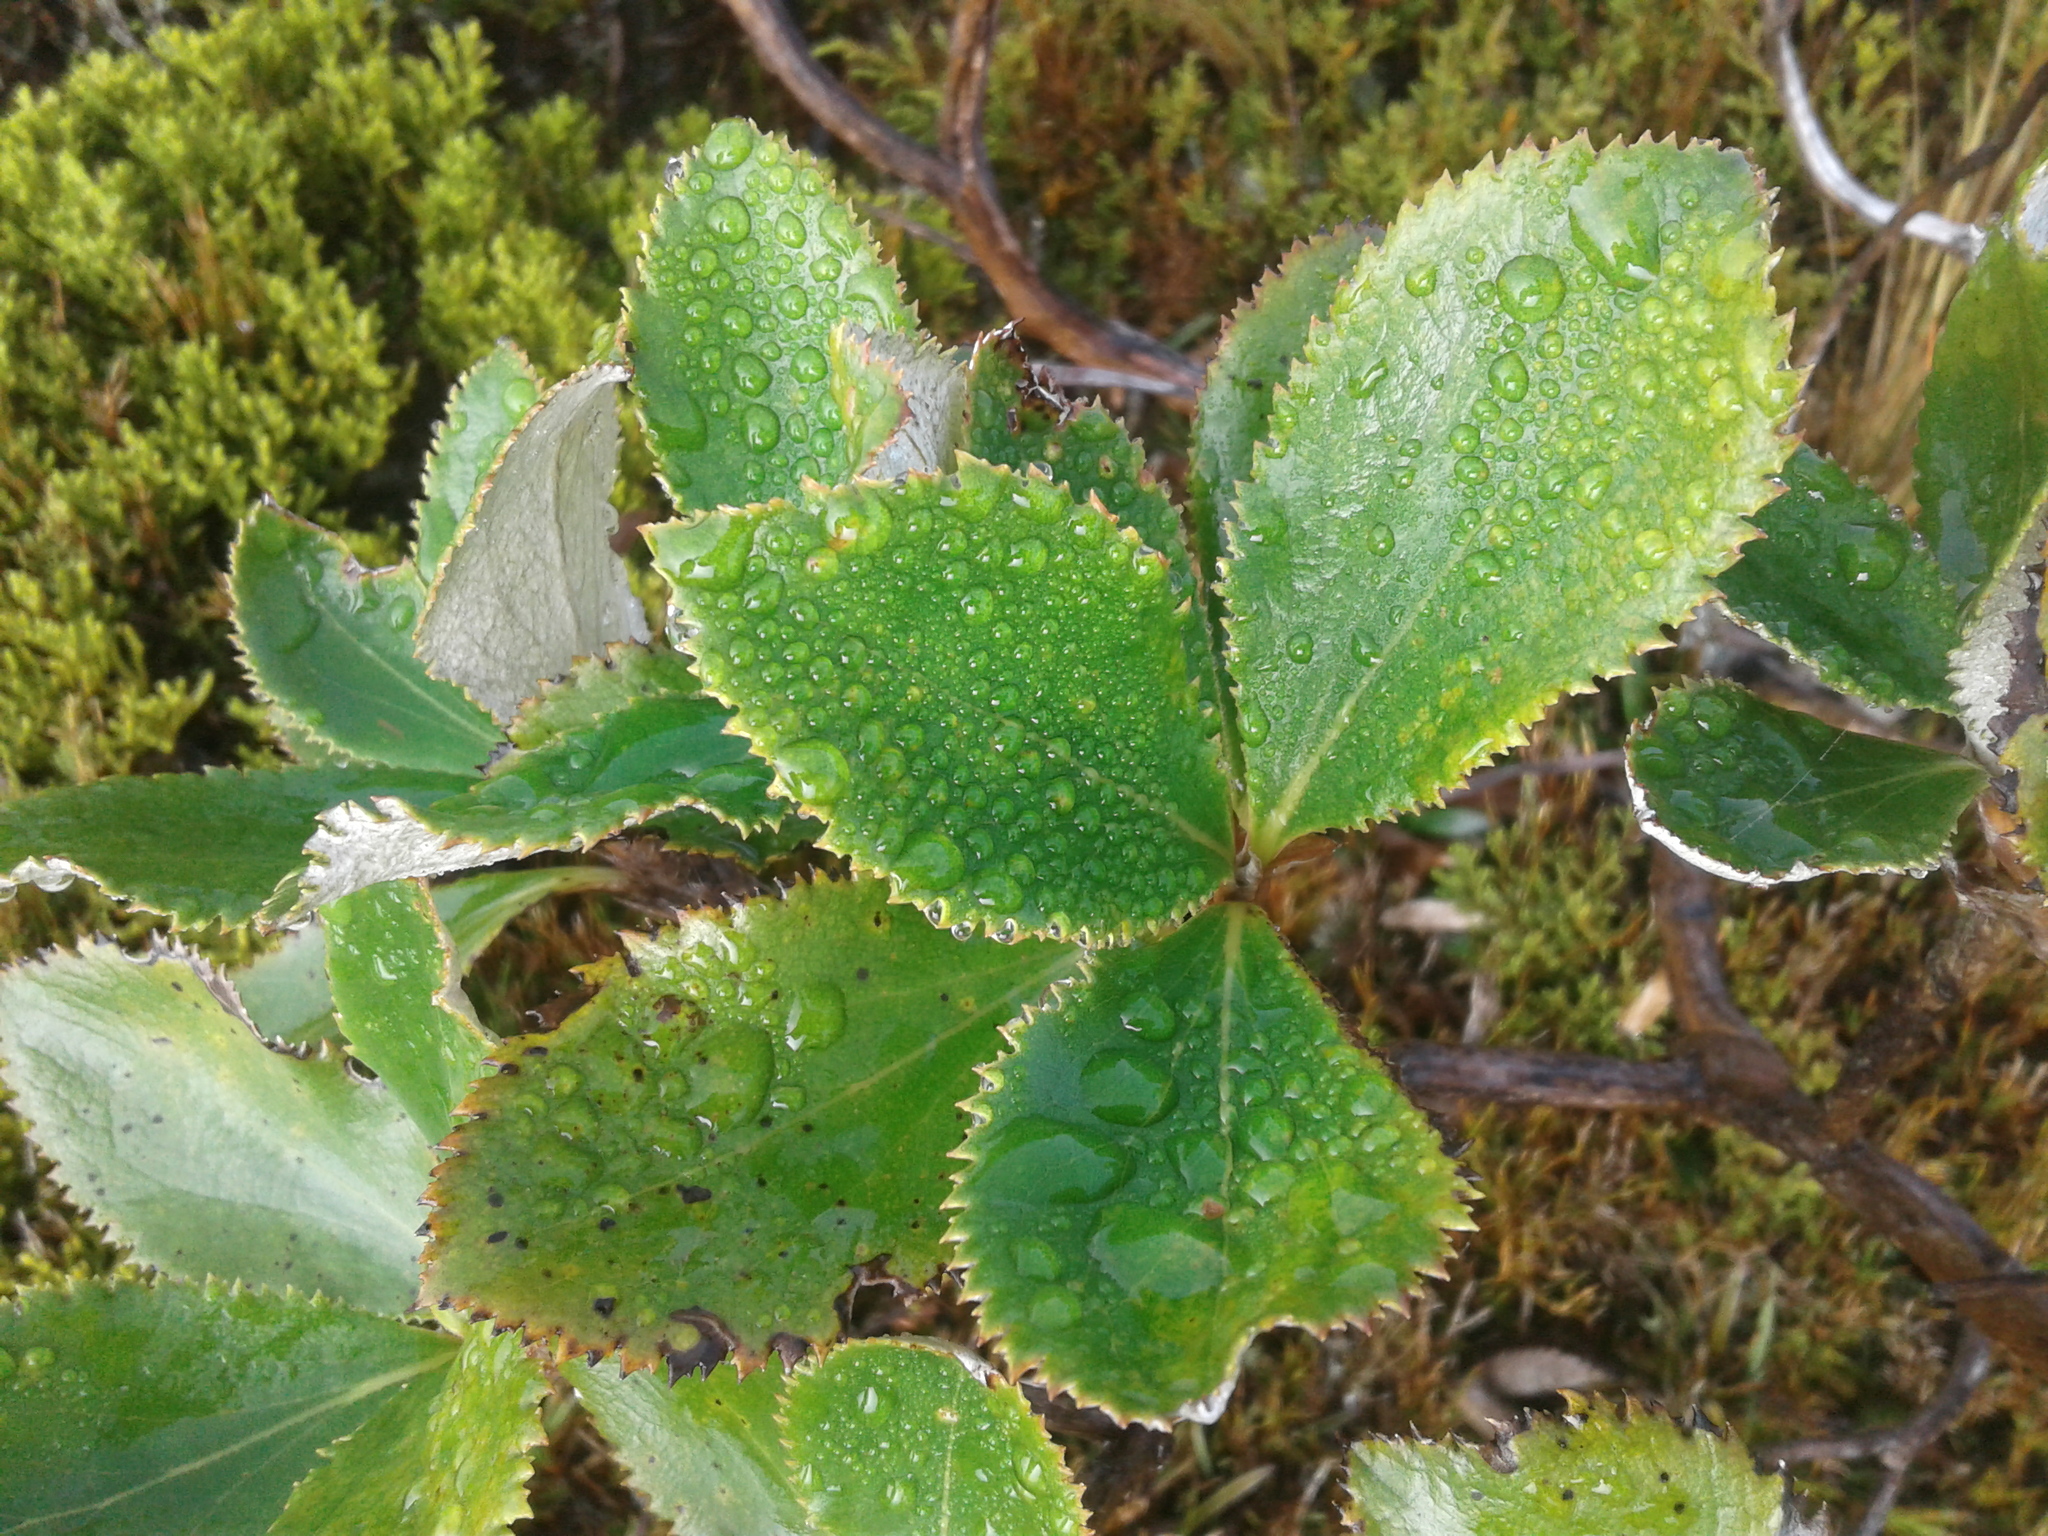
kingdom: Plantae
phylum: Tracheophyta
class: Magnoliopsida
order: Asterales
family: Asteraceae
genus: Macrolearia
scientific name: Macrolearia colensoi
